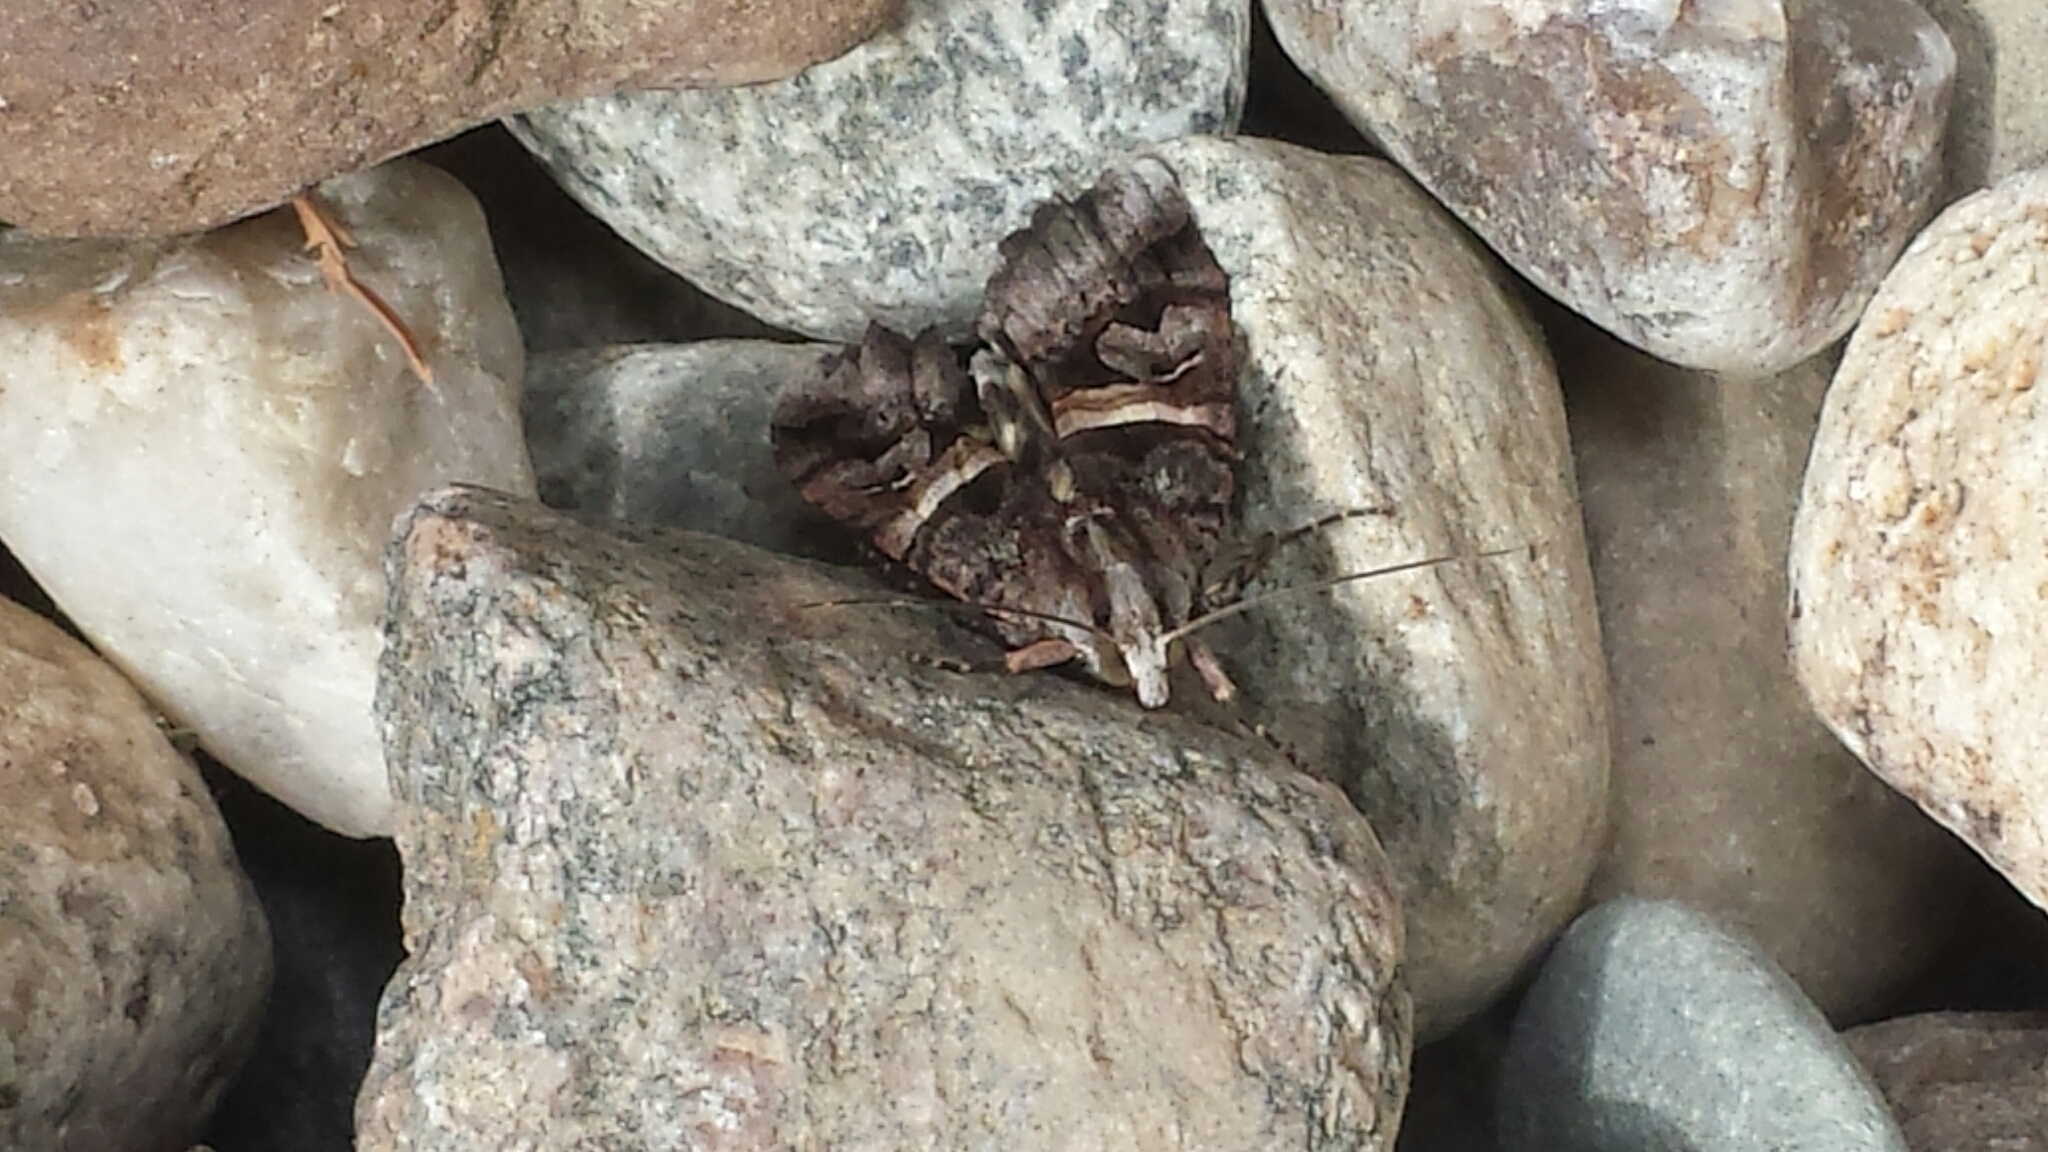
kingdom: Animalia
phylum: Arthropoda
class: Insecta
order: Lepidoptera
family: Erebidae
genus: Drasteria
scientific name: Drasteria grandirena
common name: Figure-seven moth
